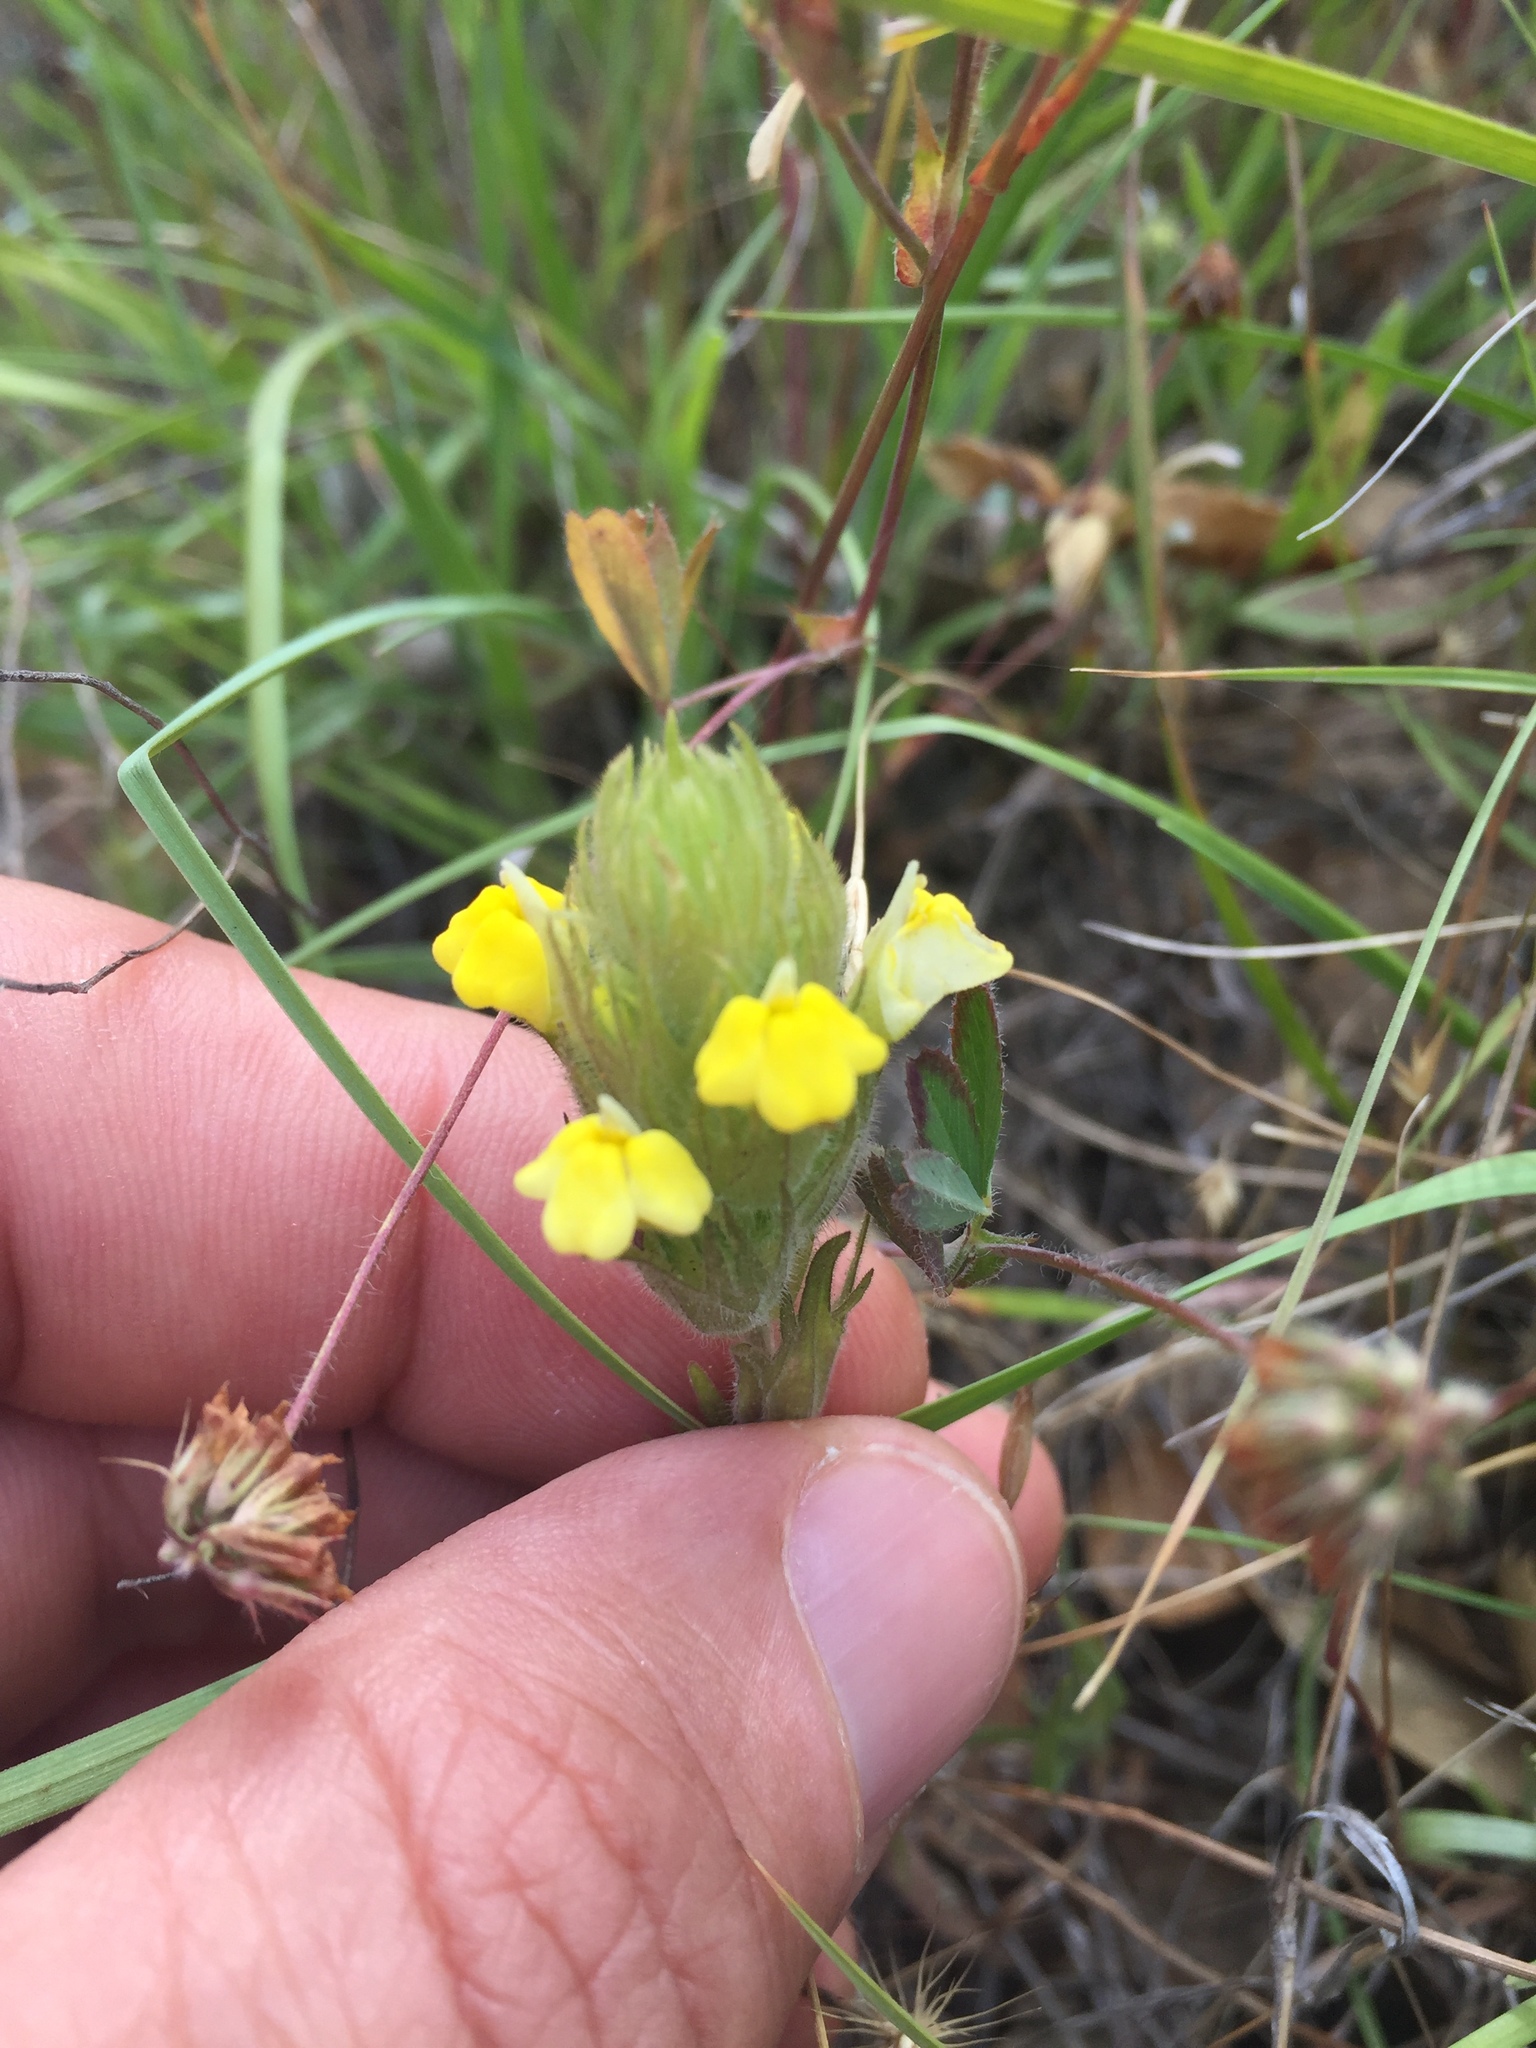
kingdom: Plantae
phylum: Tracheophyta
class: Magnoliopsida
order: Lamiales
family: Orobanchaceae
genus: Castilleja
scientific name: Castilleja rubicundula
